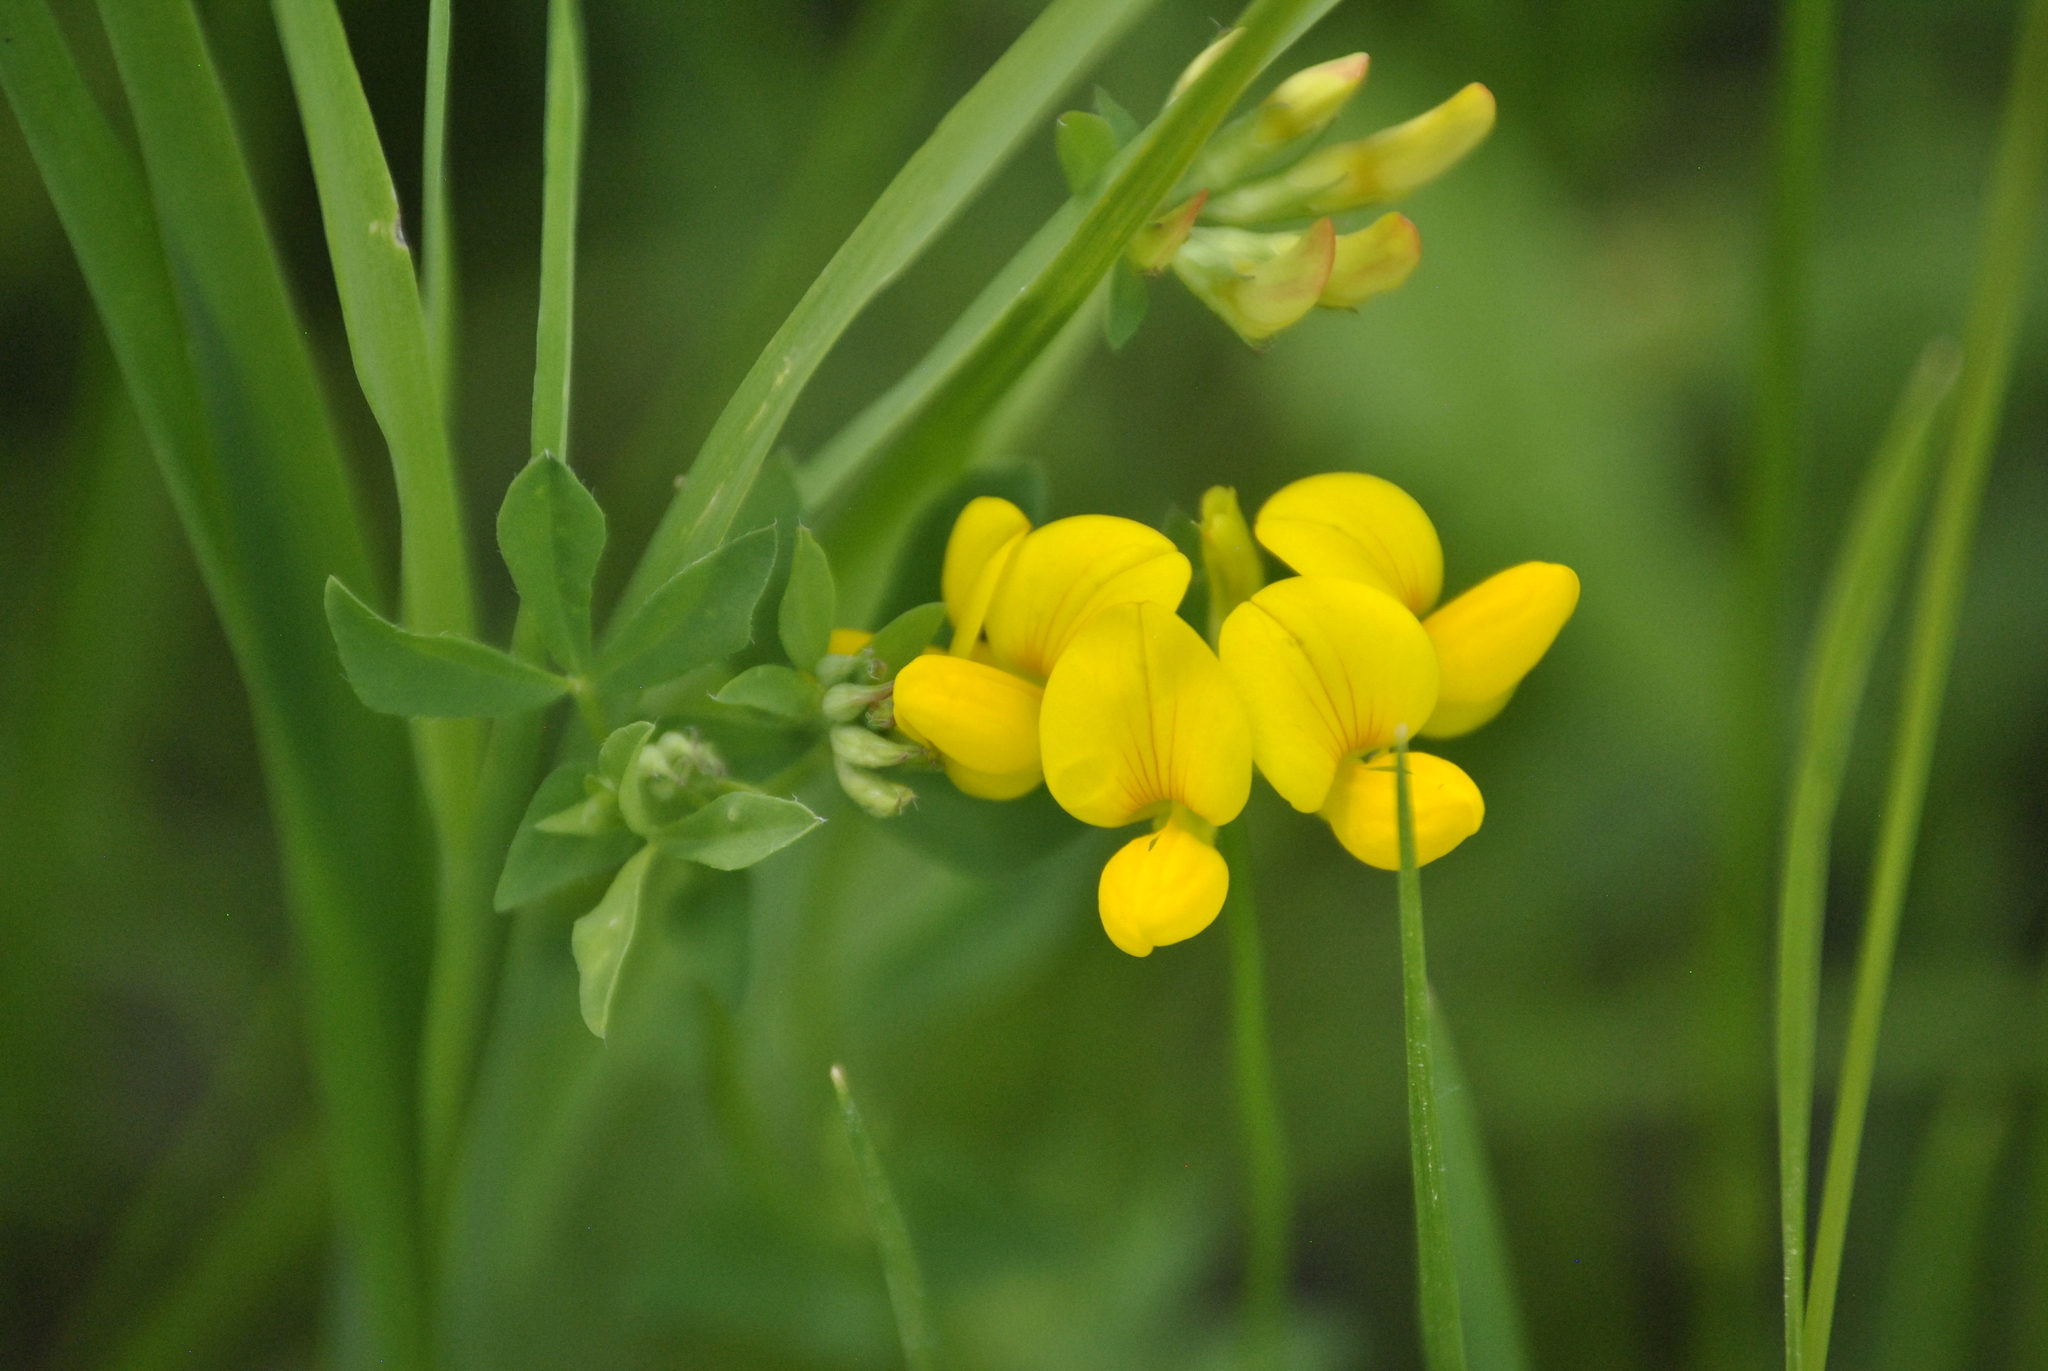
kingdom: Plantae
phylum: Tracheophyta
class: Magnoliopsida
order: Fabales
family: Fabaceae
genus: Lotus
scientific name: Lotus corniculatus
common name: Common bird's-foot-trefoil
